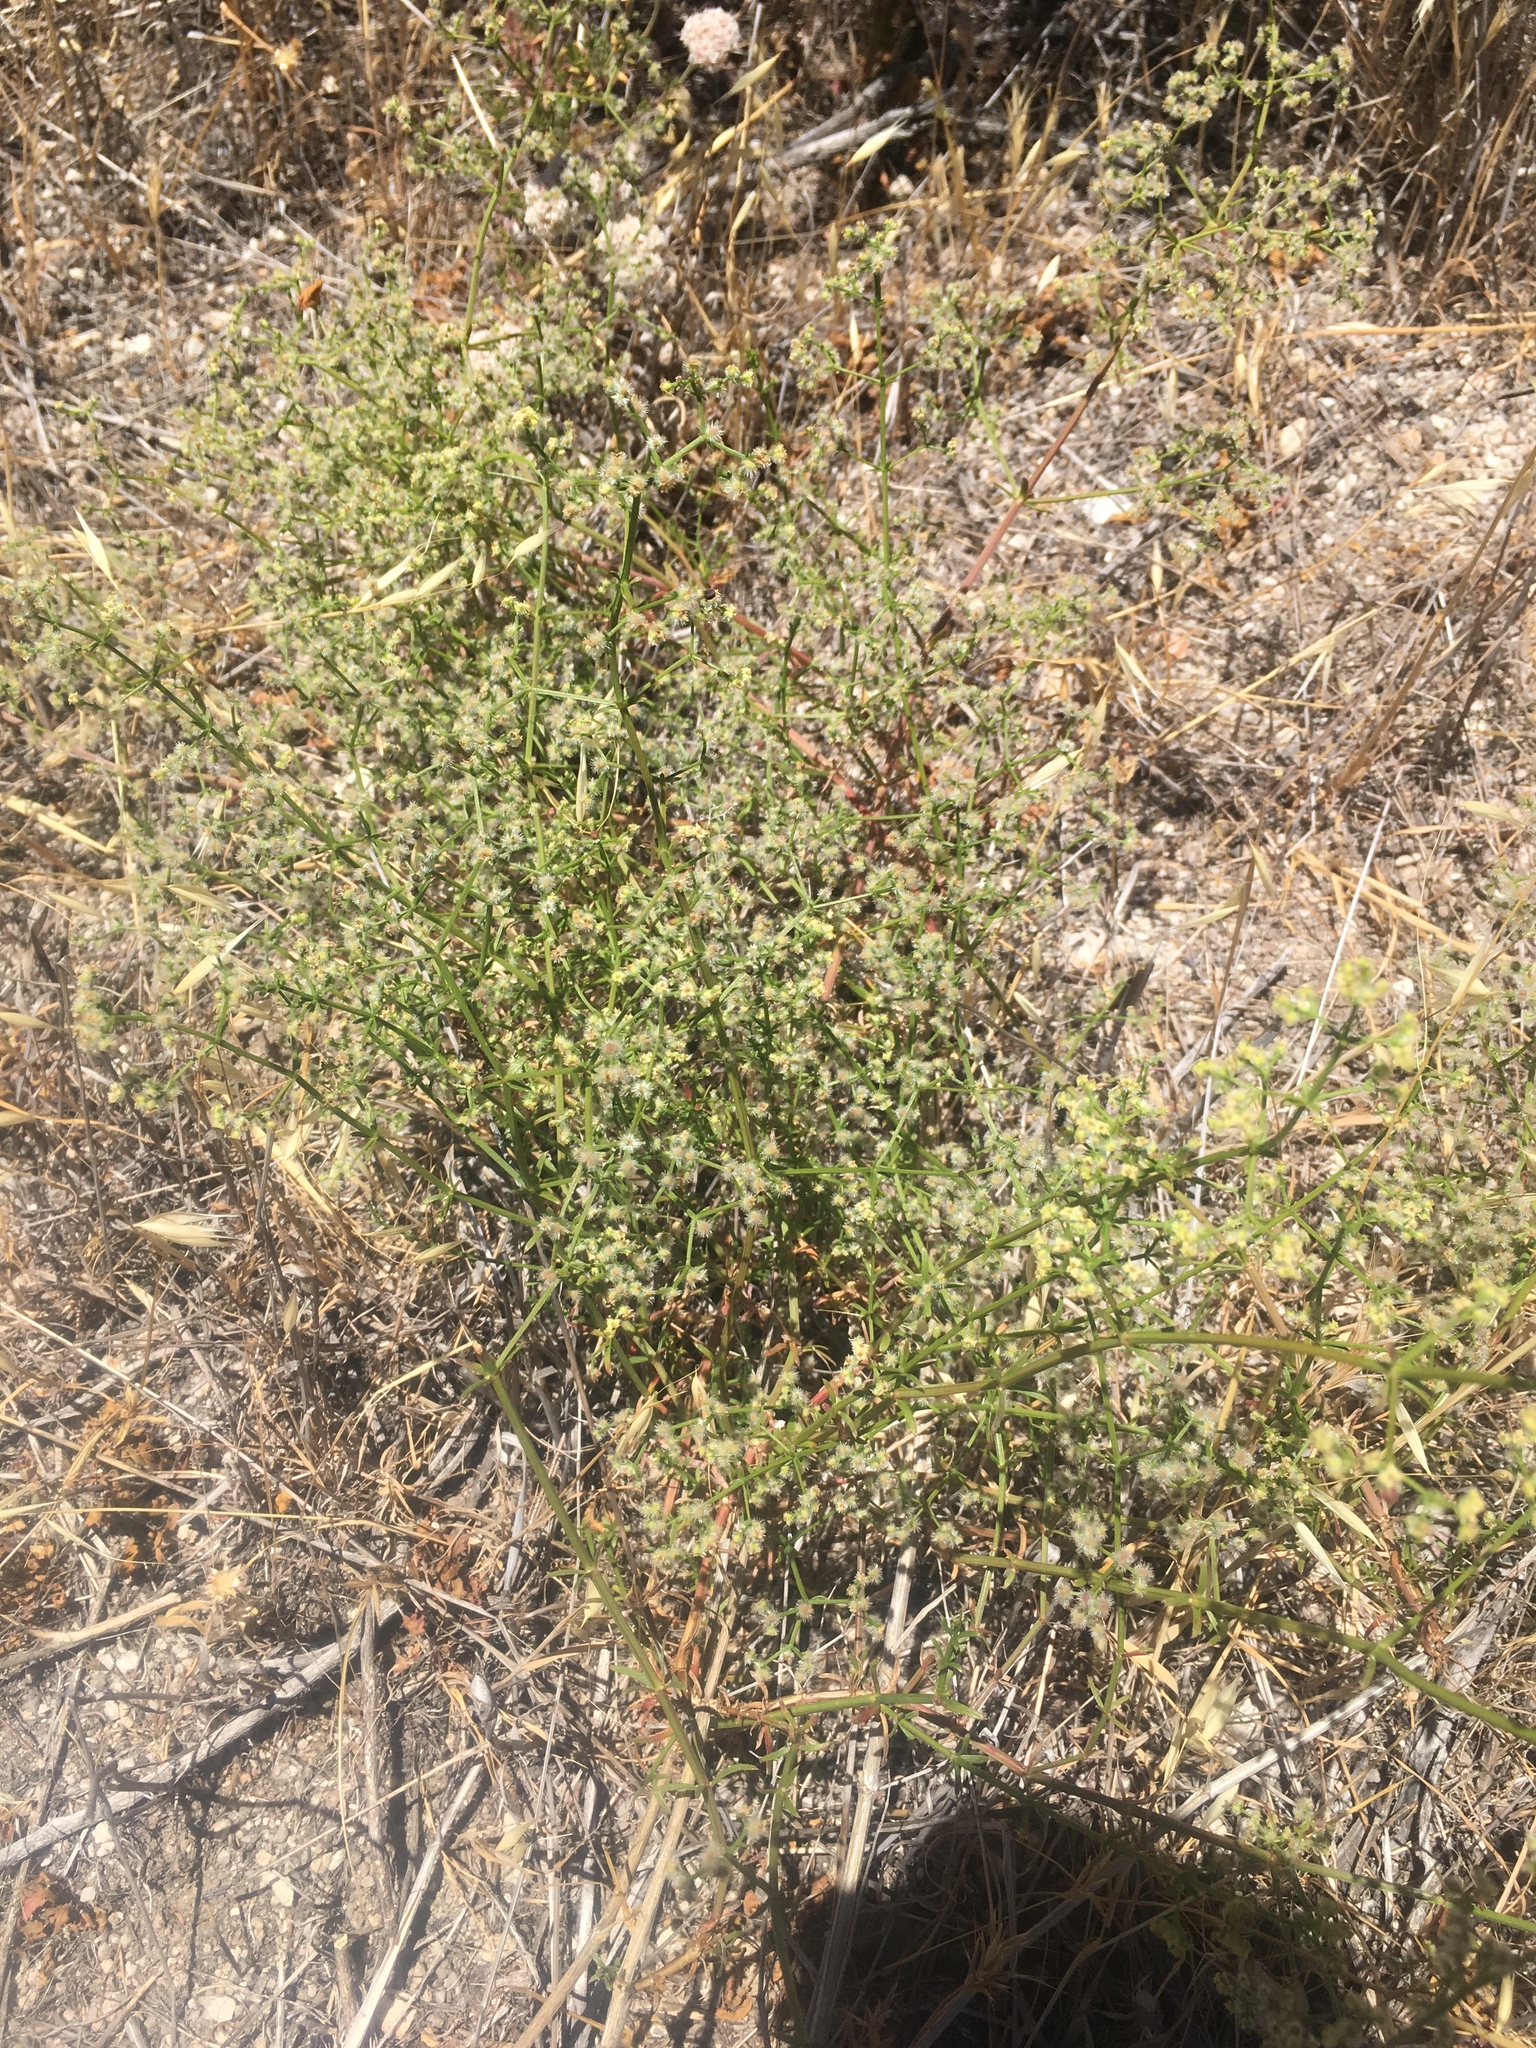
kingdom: Plantae
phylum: Tracheophyta
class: Magnoliopsida
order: Gentianales
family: Rubiaceae
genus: Galium
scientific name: Galium angustifolium
